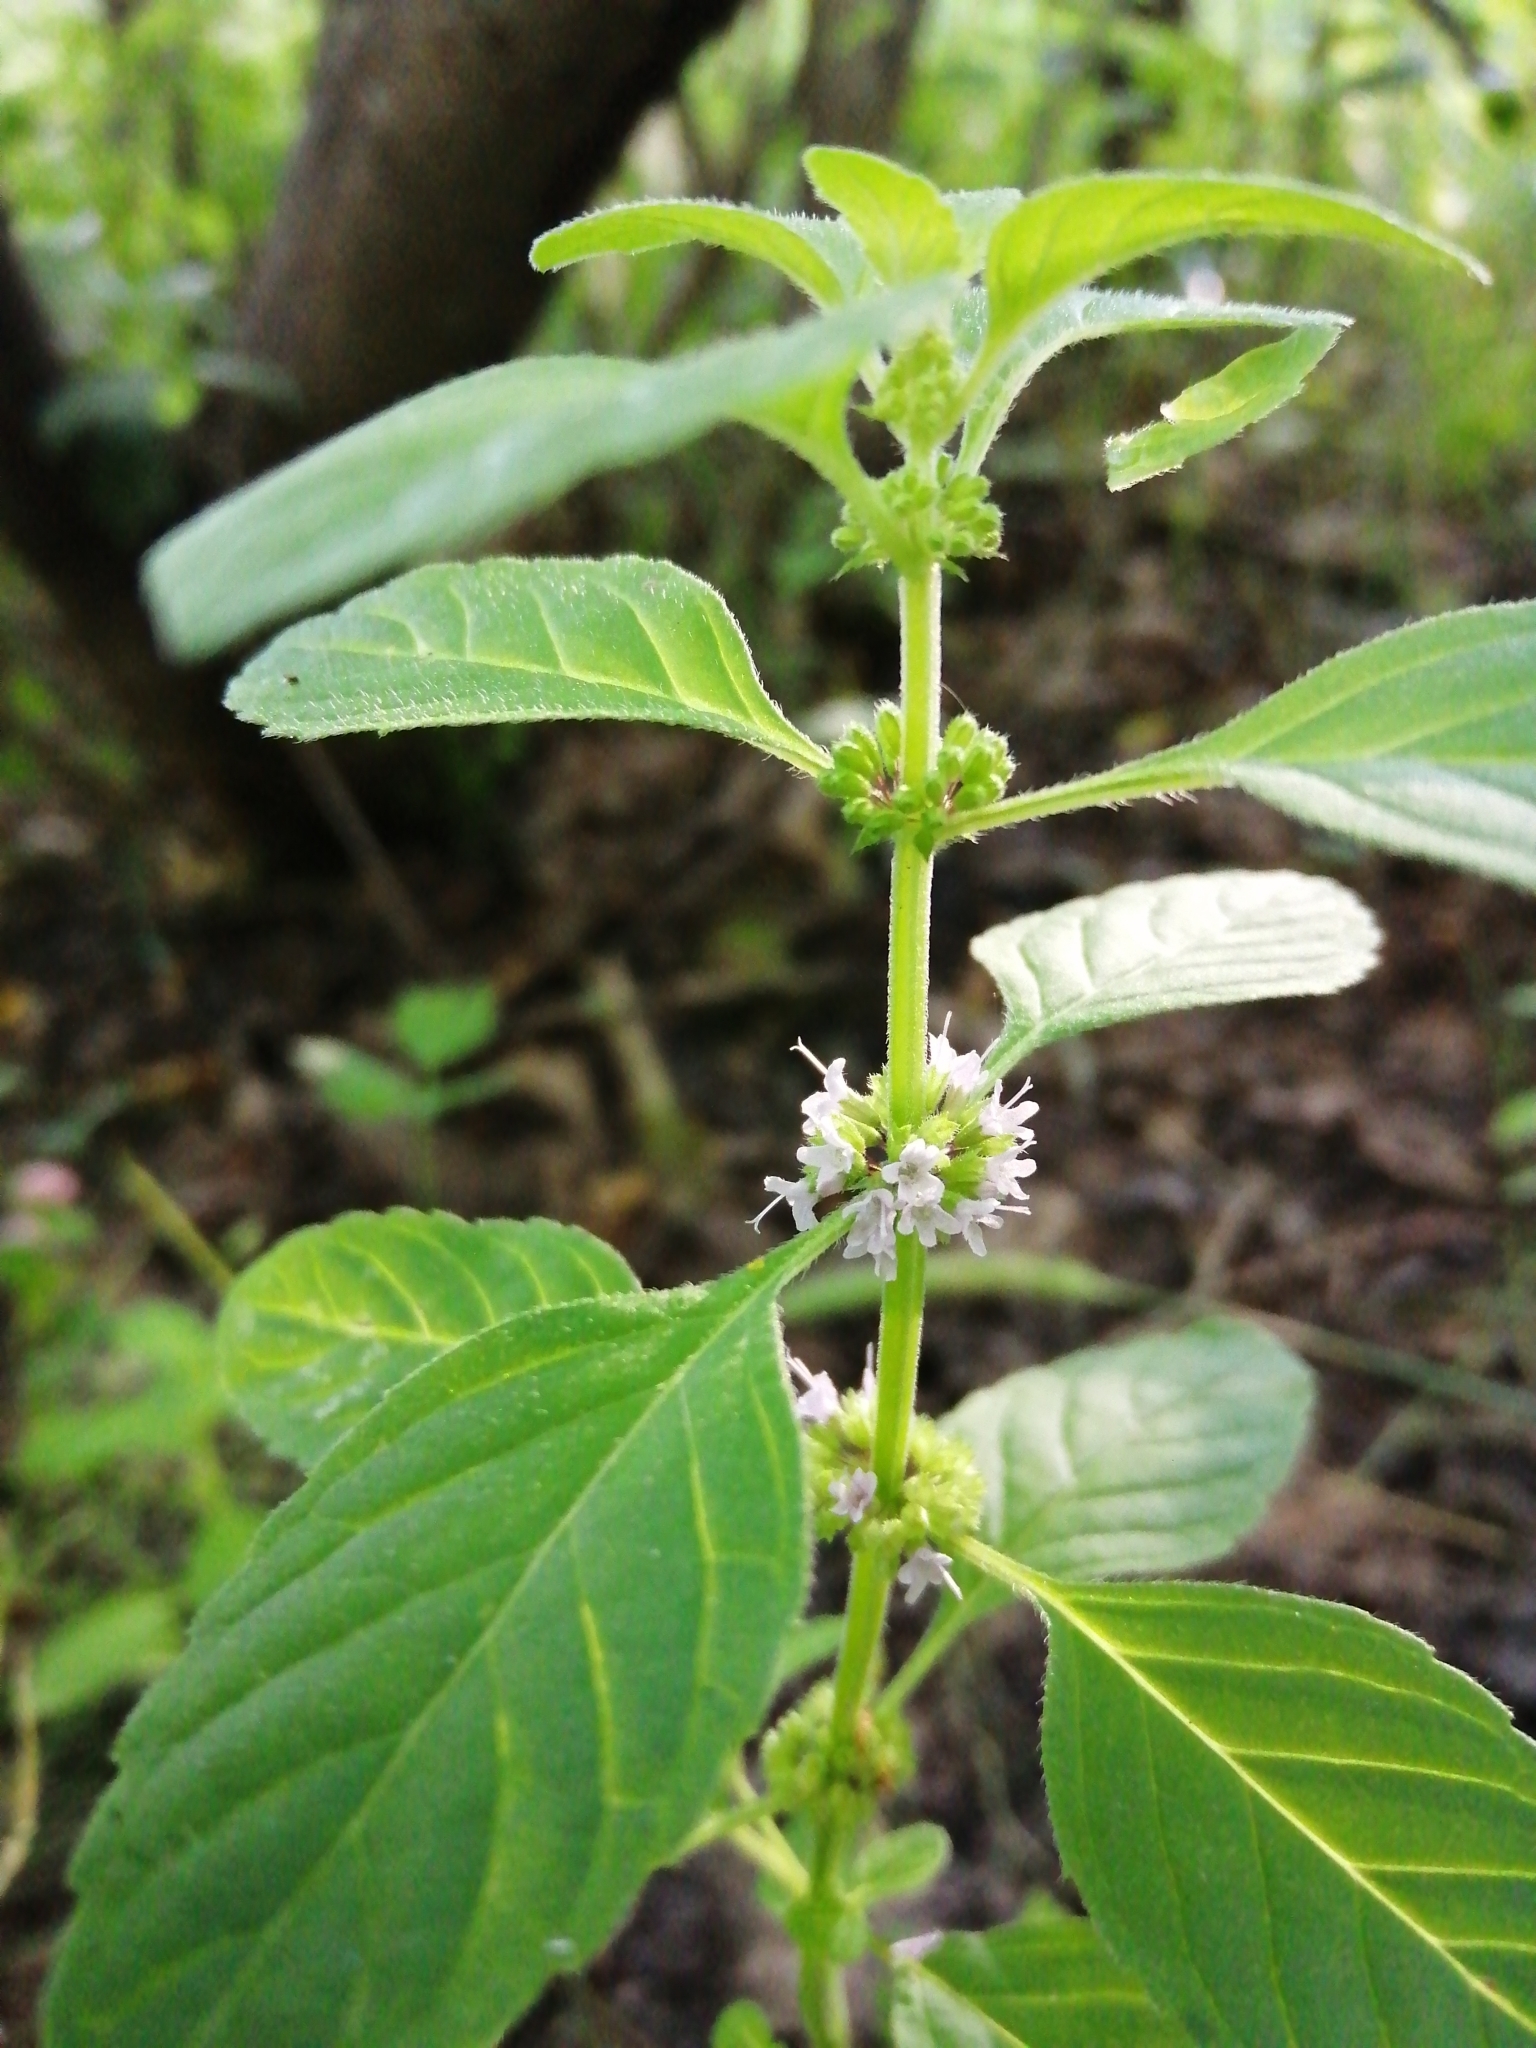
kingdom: Plantae
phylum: Tracheophyta
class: Magnoliopsida
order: Lamiales
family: Lamiaceae
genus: Mentha
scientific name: Mentha arvensis
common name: Corn mint
